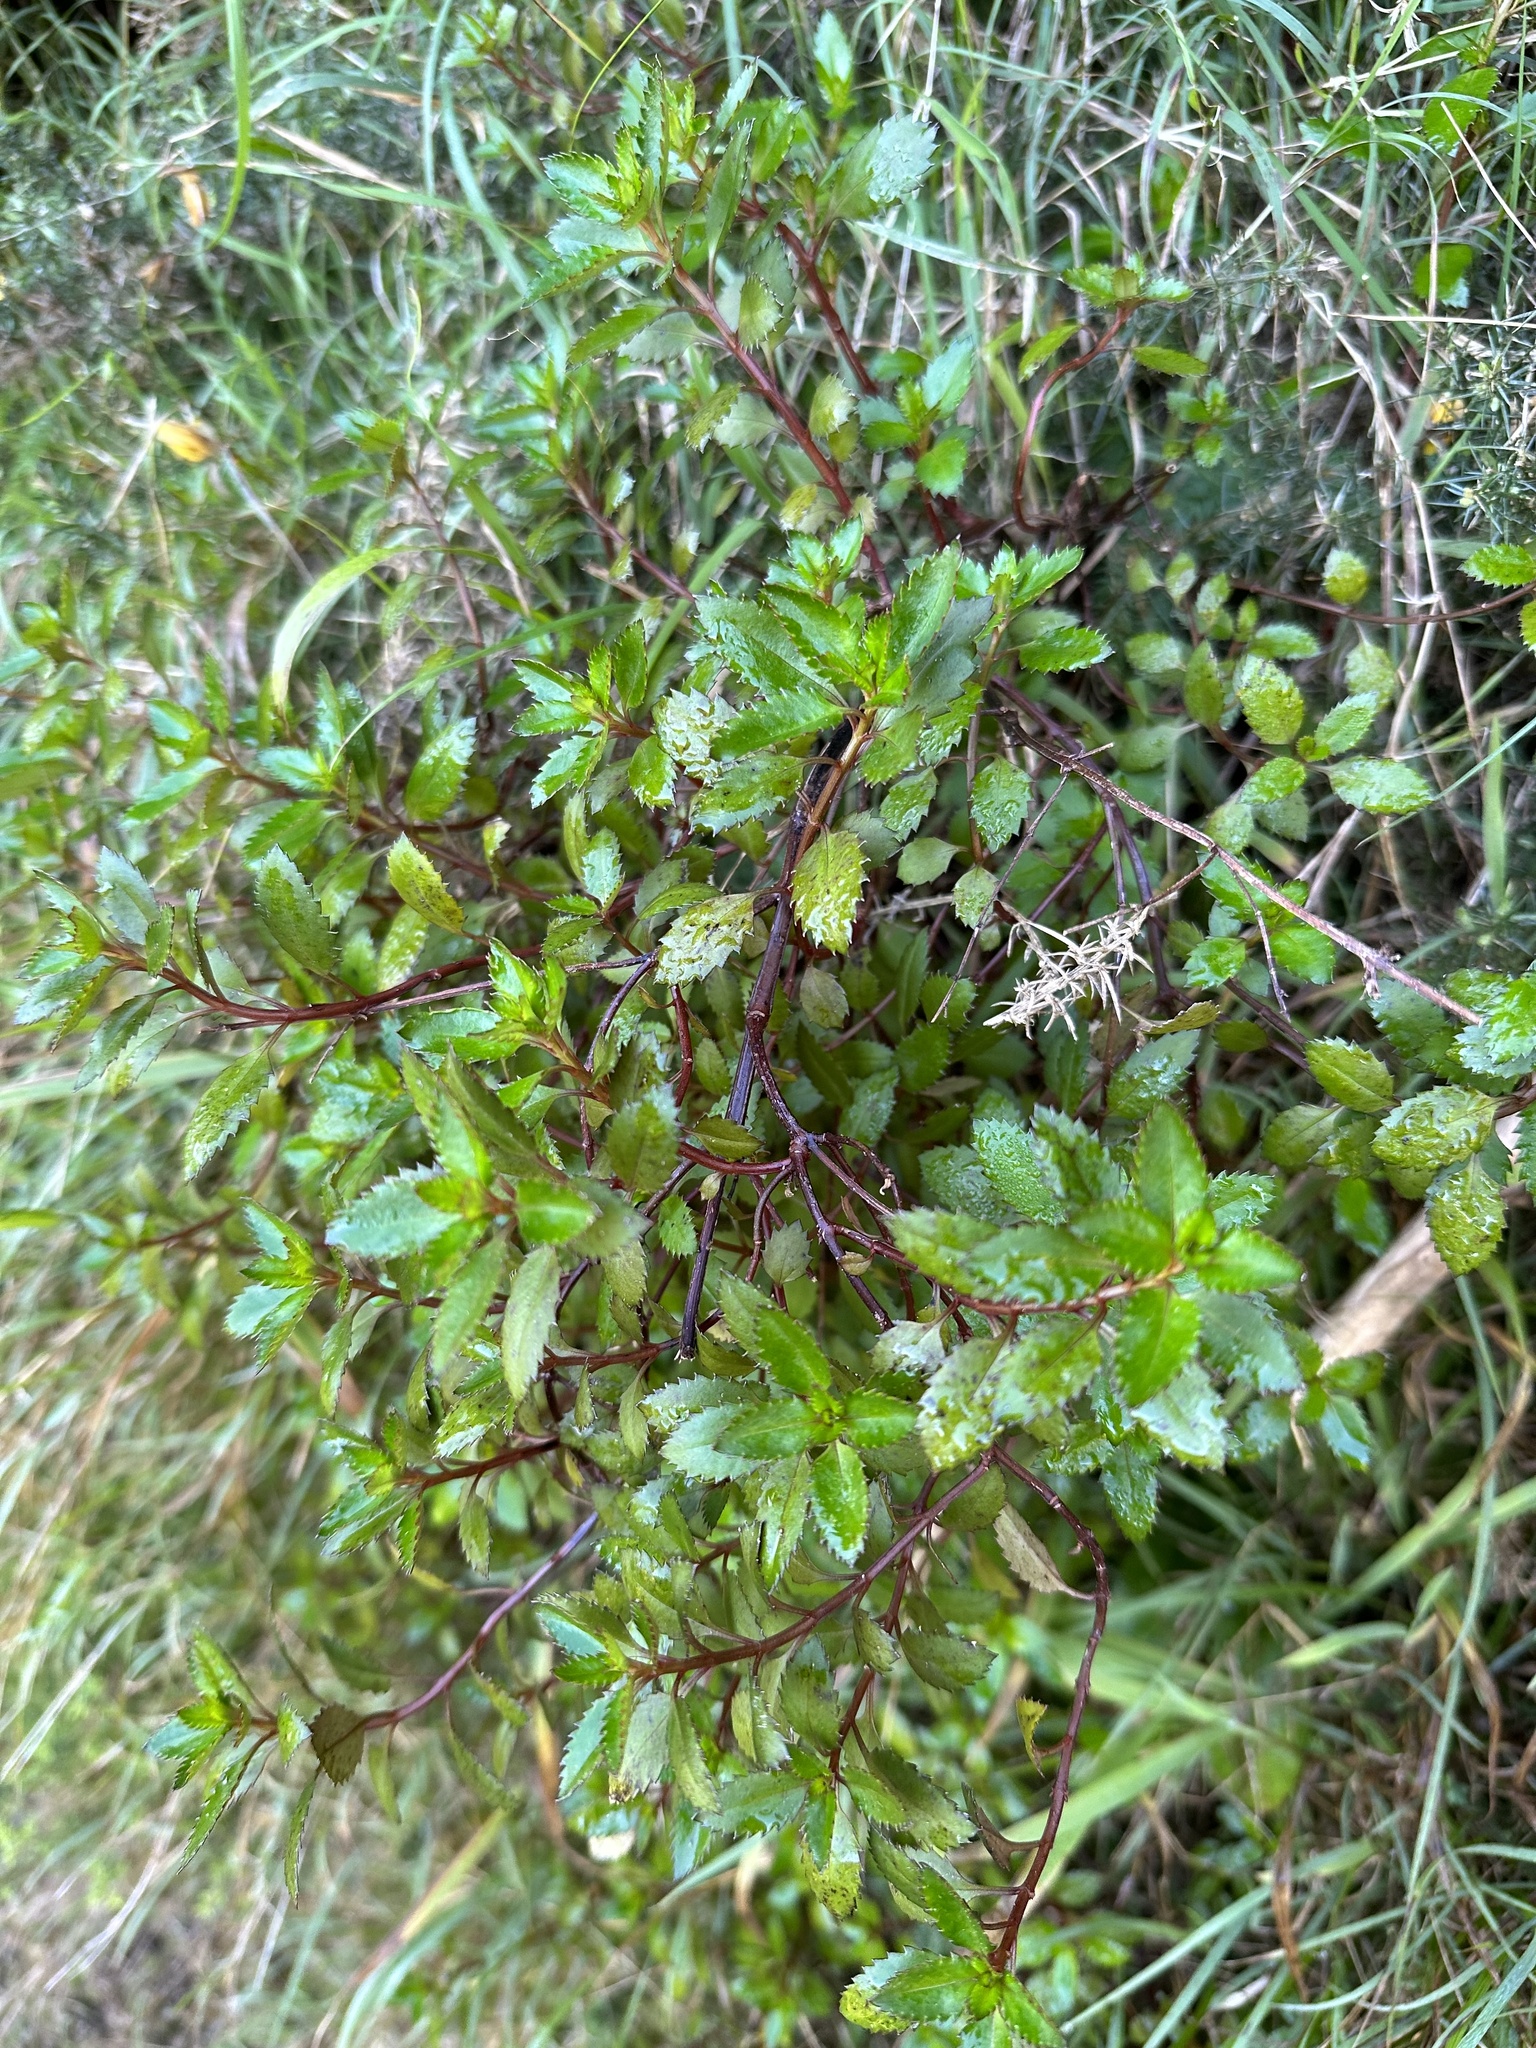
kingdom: Plantae
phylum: Tracheophyta
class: Magnoliopsida
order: Saxifragales
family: Haloragaceae
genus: Haloragis
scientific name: Haloragis erecta
